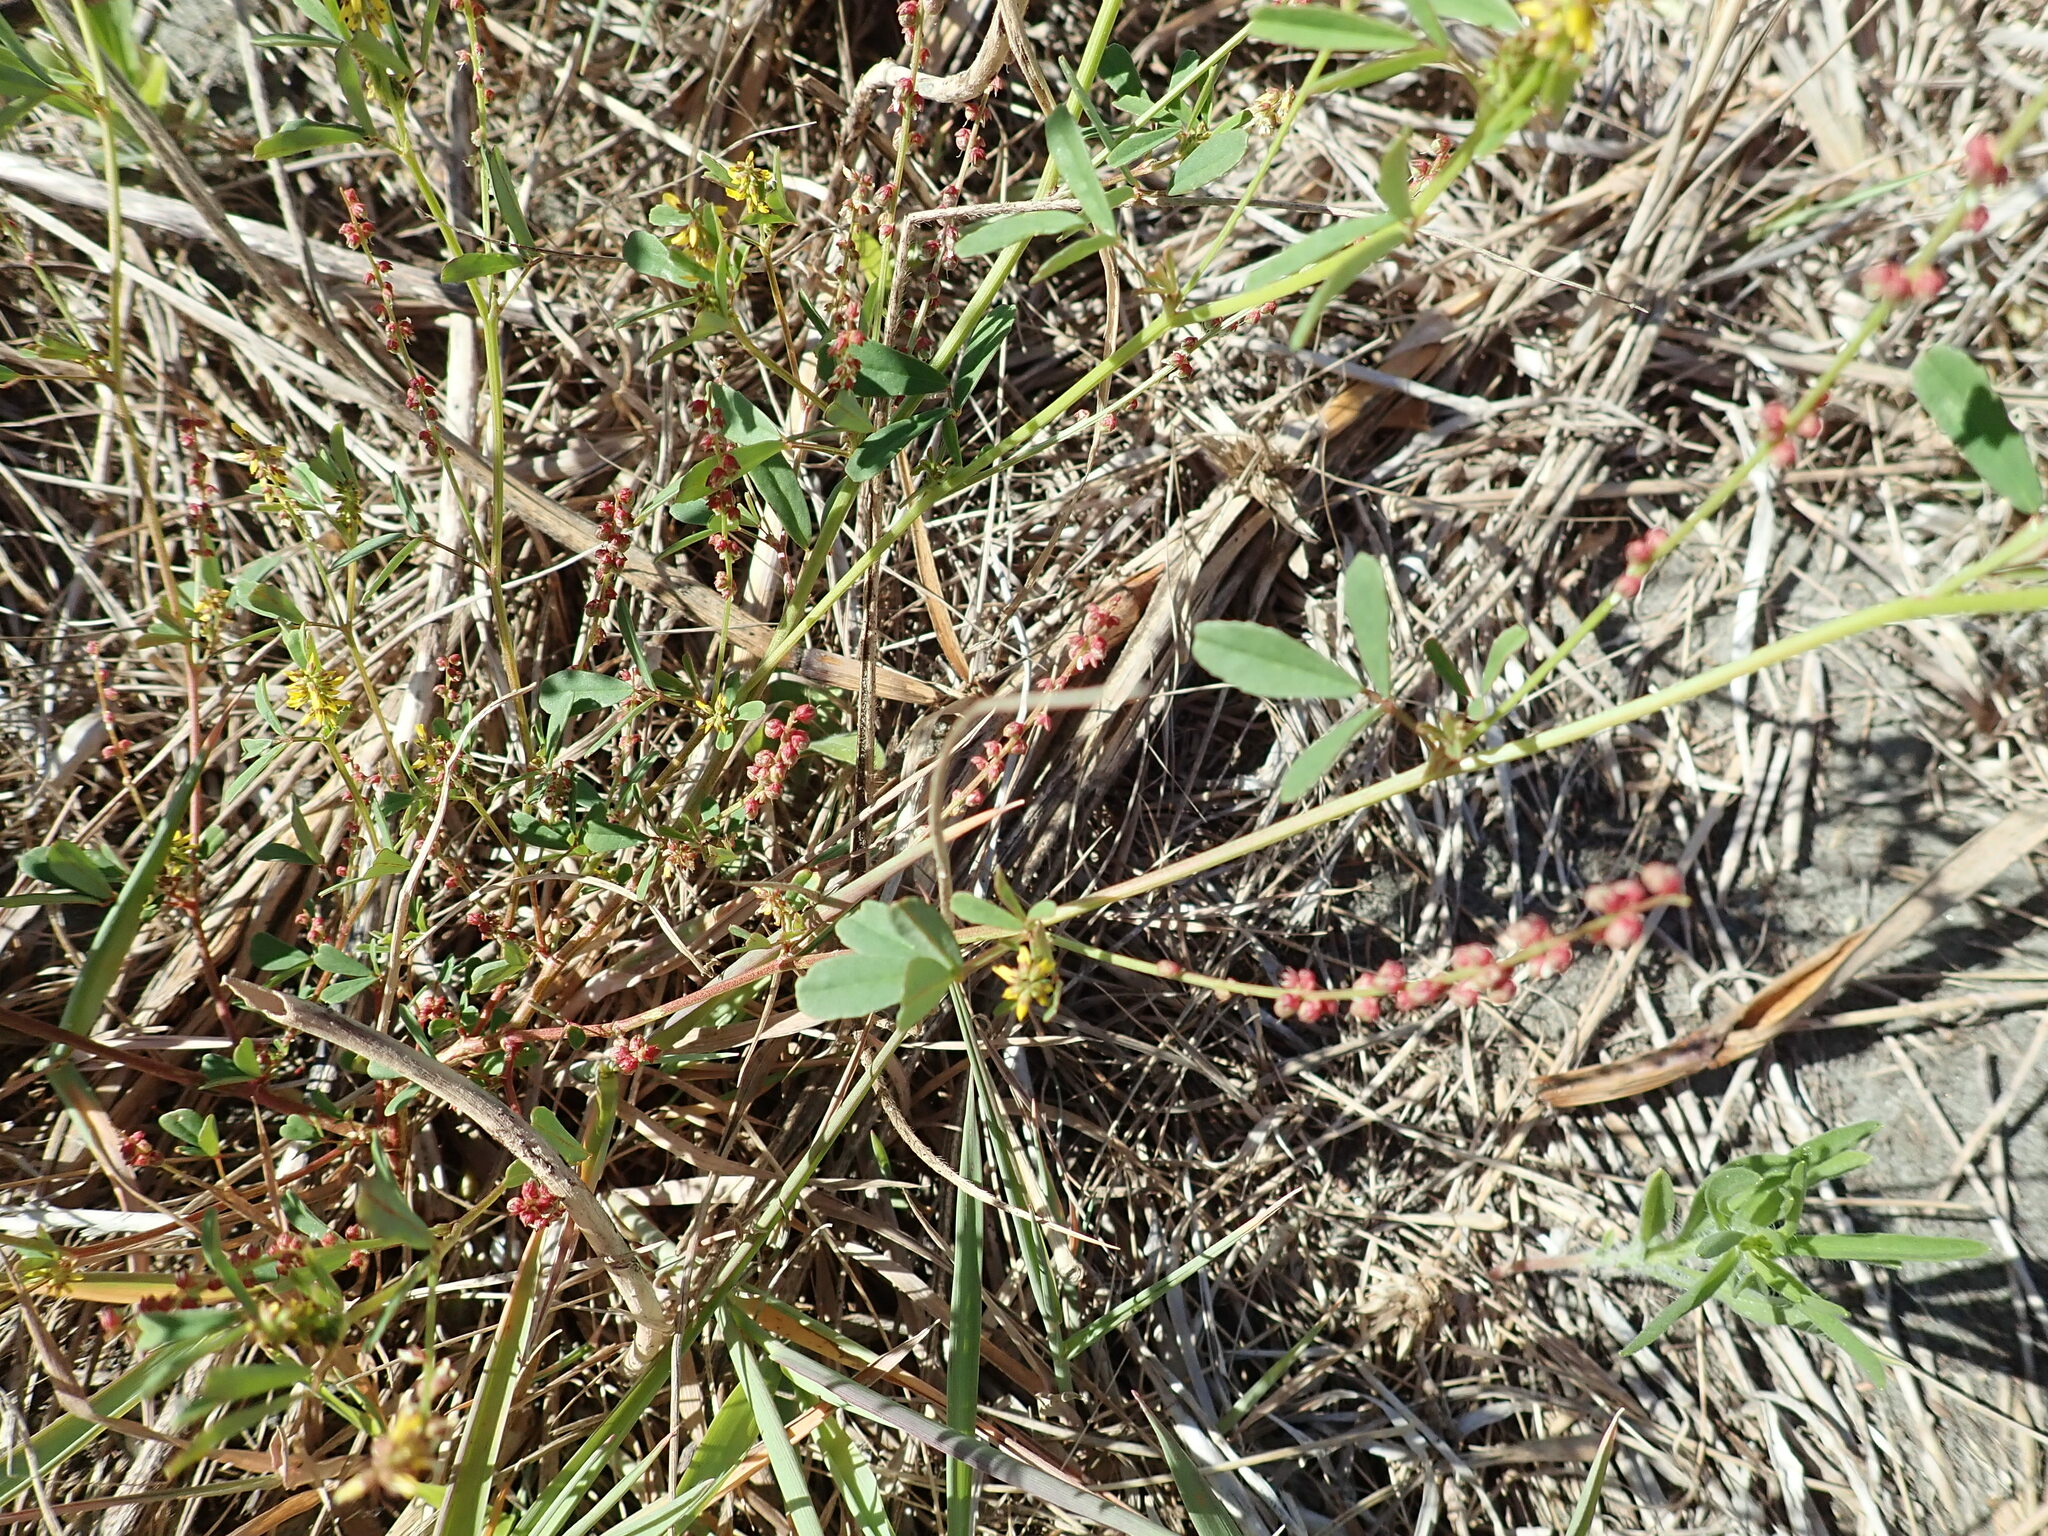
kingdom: Plantae
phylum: Tracheophyta
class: Magnoliopsida
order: Fabales
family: Fabaceae
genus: Melilotus
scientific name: Melilotus indicus
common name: Small melilot
